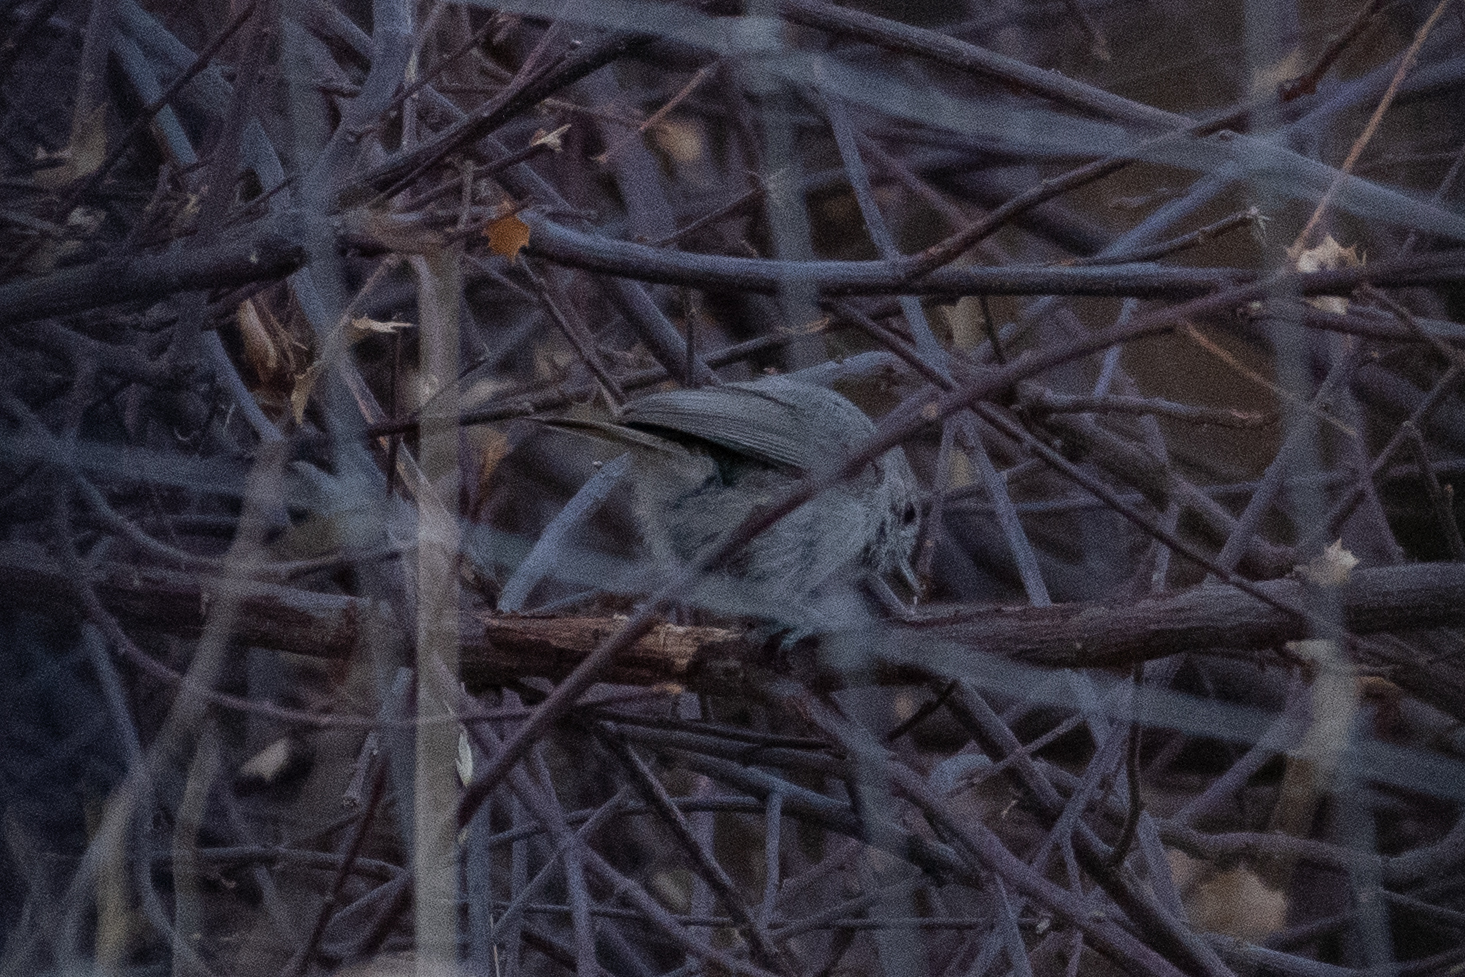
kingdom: Animalia
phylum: Chordata
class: Aves
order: Passeriformes
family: Paridae
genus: Baeolophus
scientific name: Baeolophus inornatus
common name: Oak titmouse
